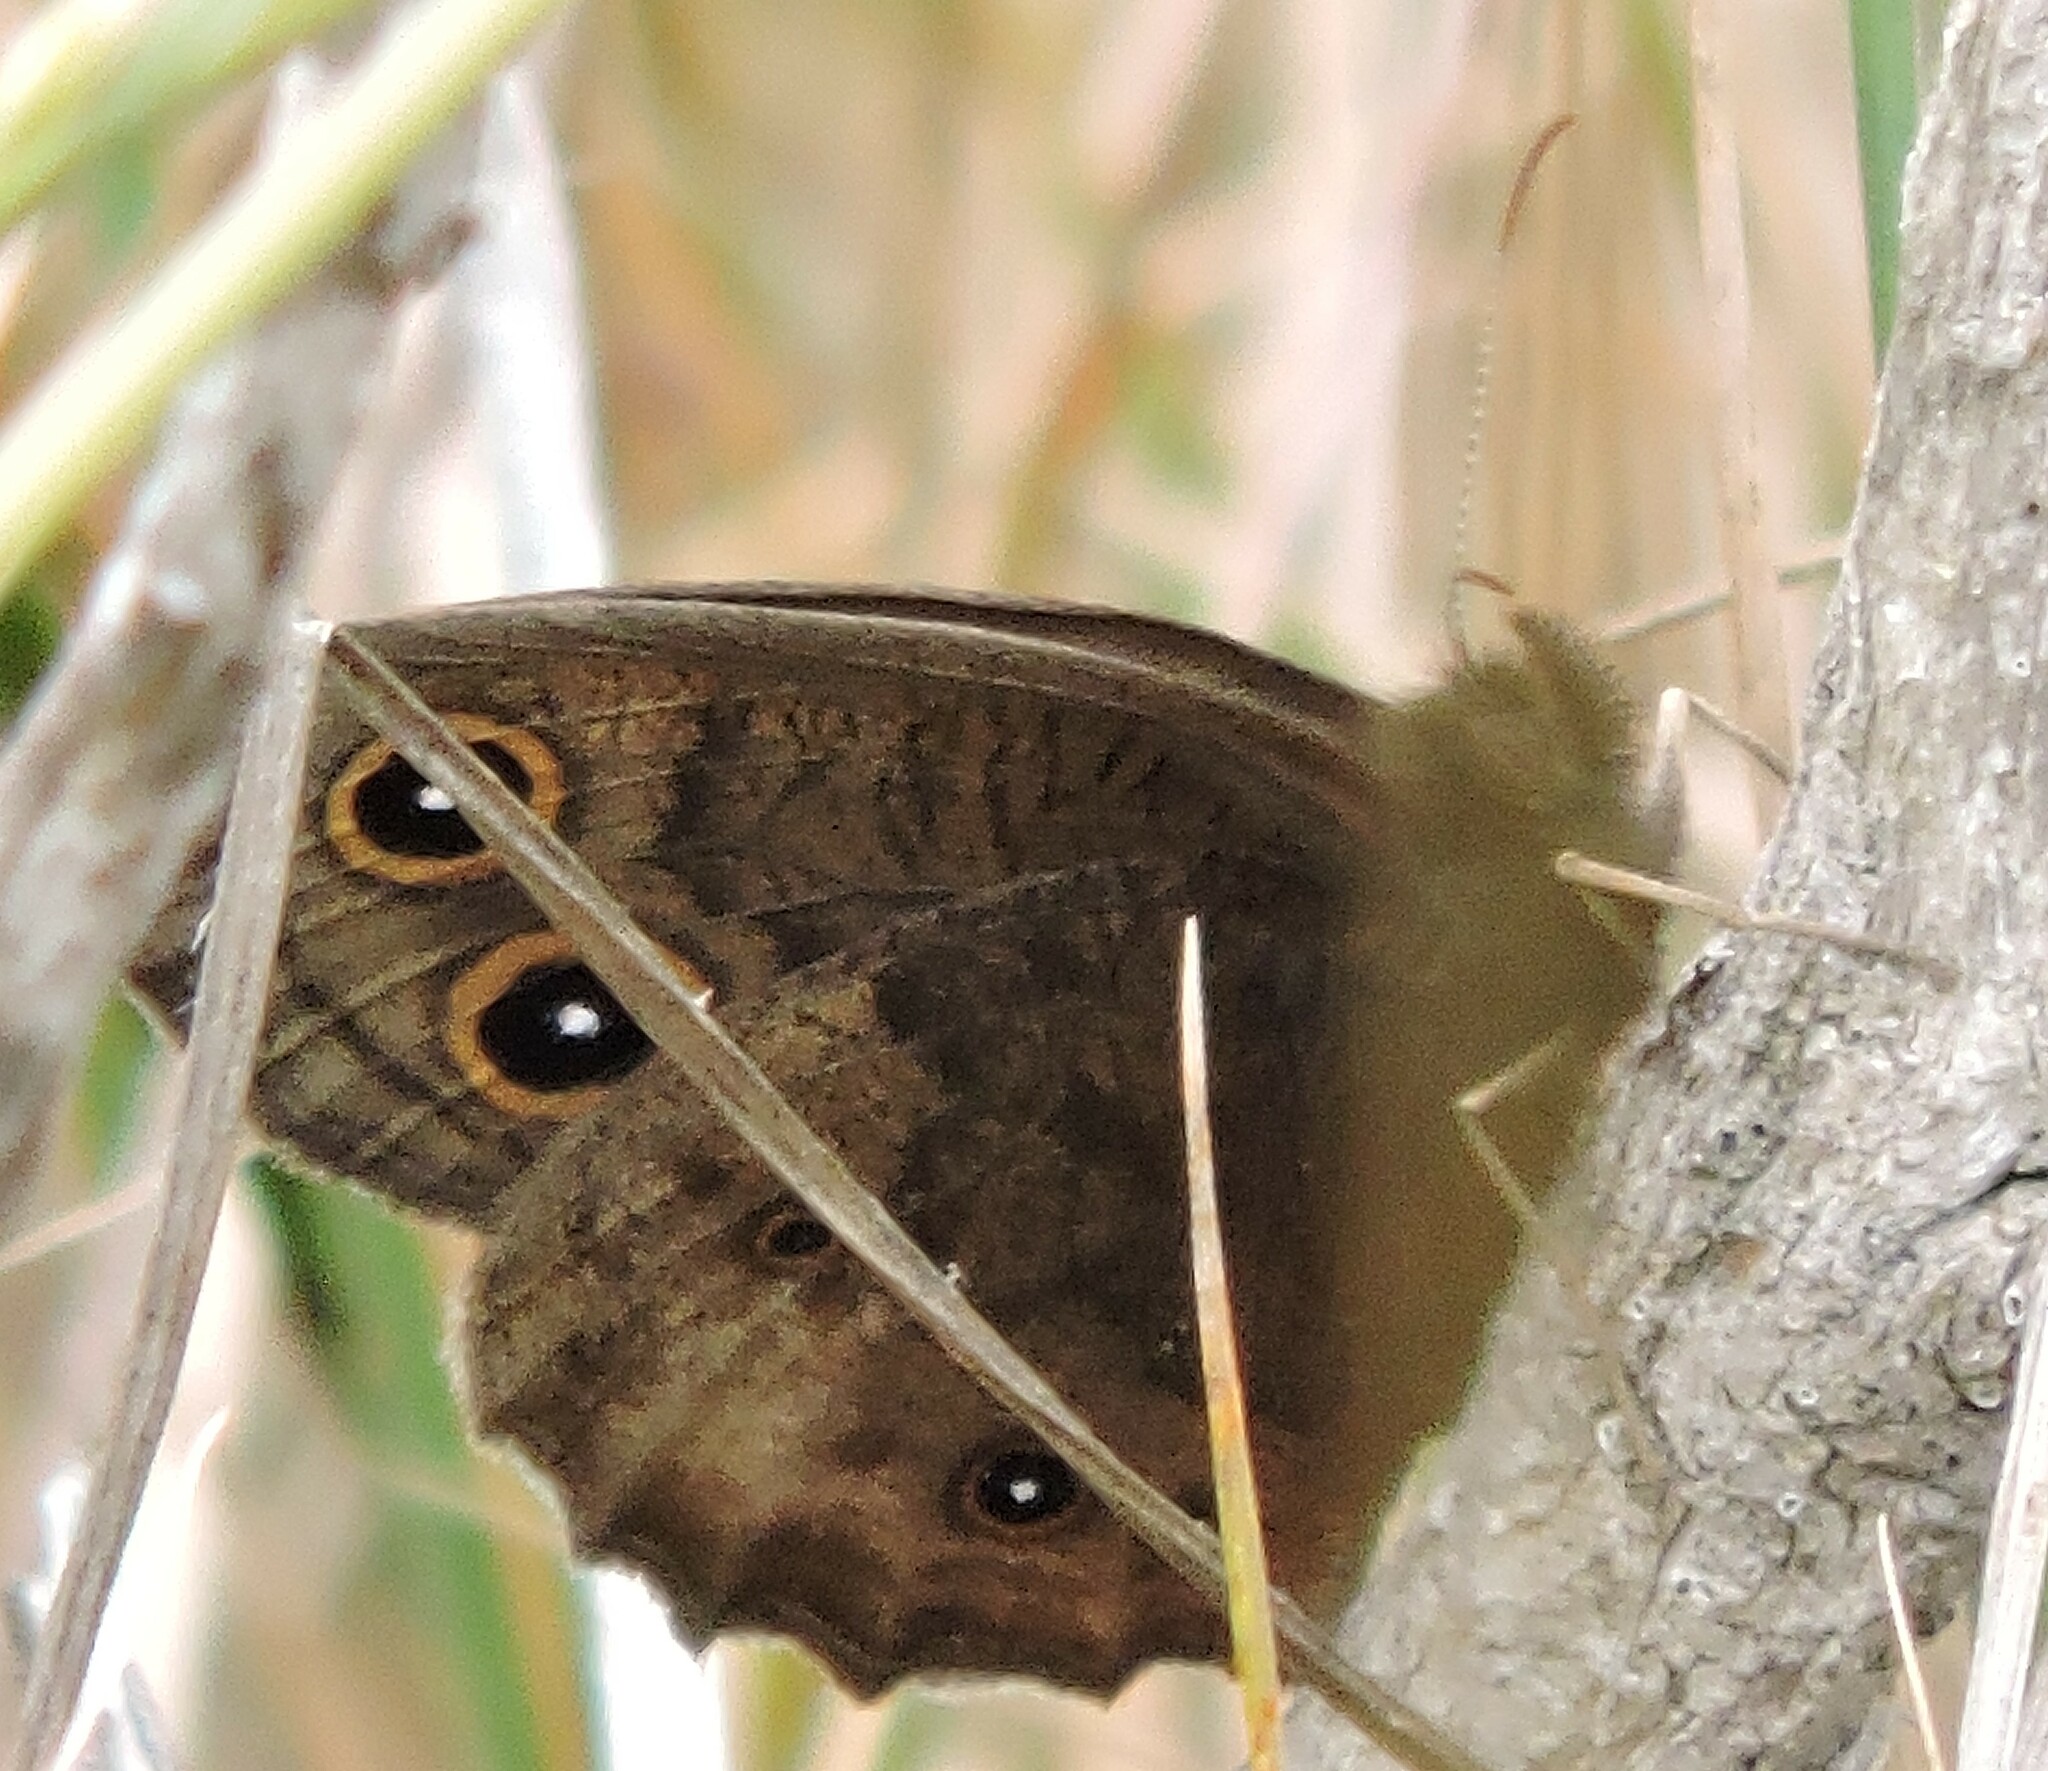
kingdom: Animalia
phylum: Arthropoda
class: Insecta
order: Lepidoptera
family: Nymphalidae
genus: Cercyonis
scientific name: Cercyonis pegala
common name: Common wood-nymph
